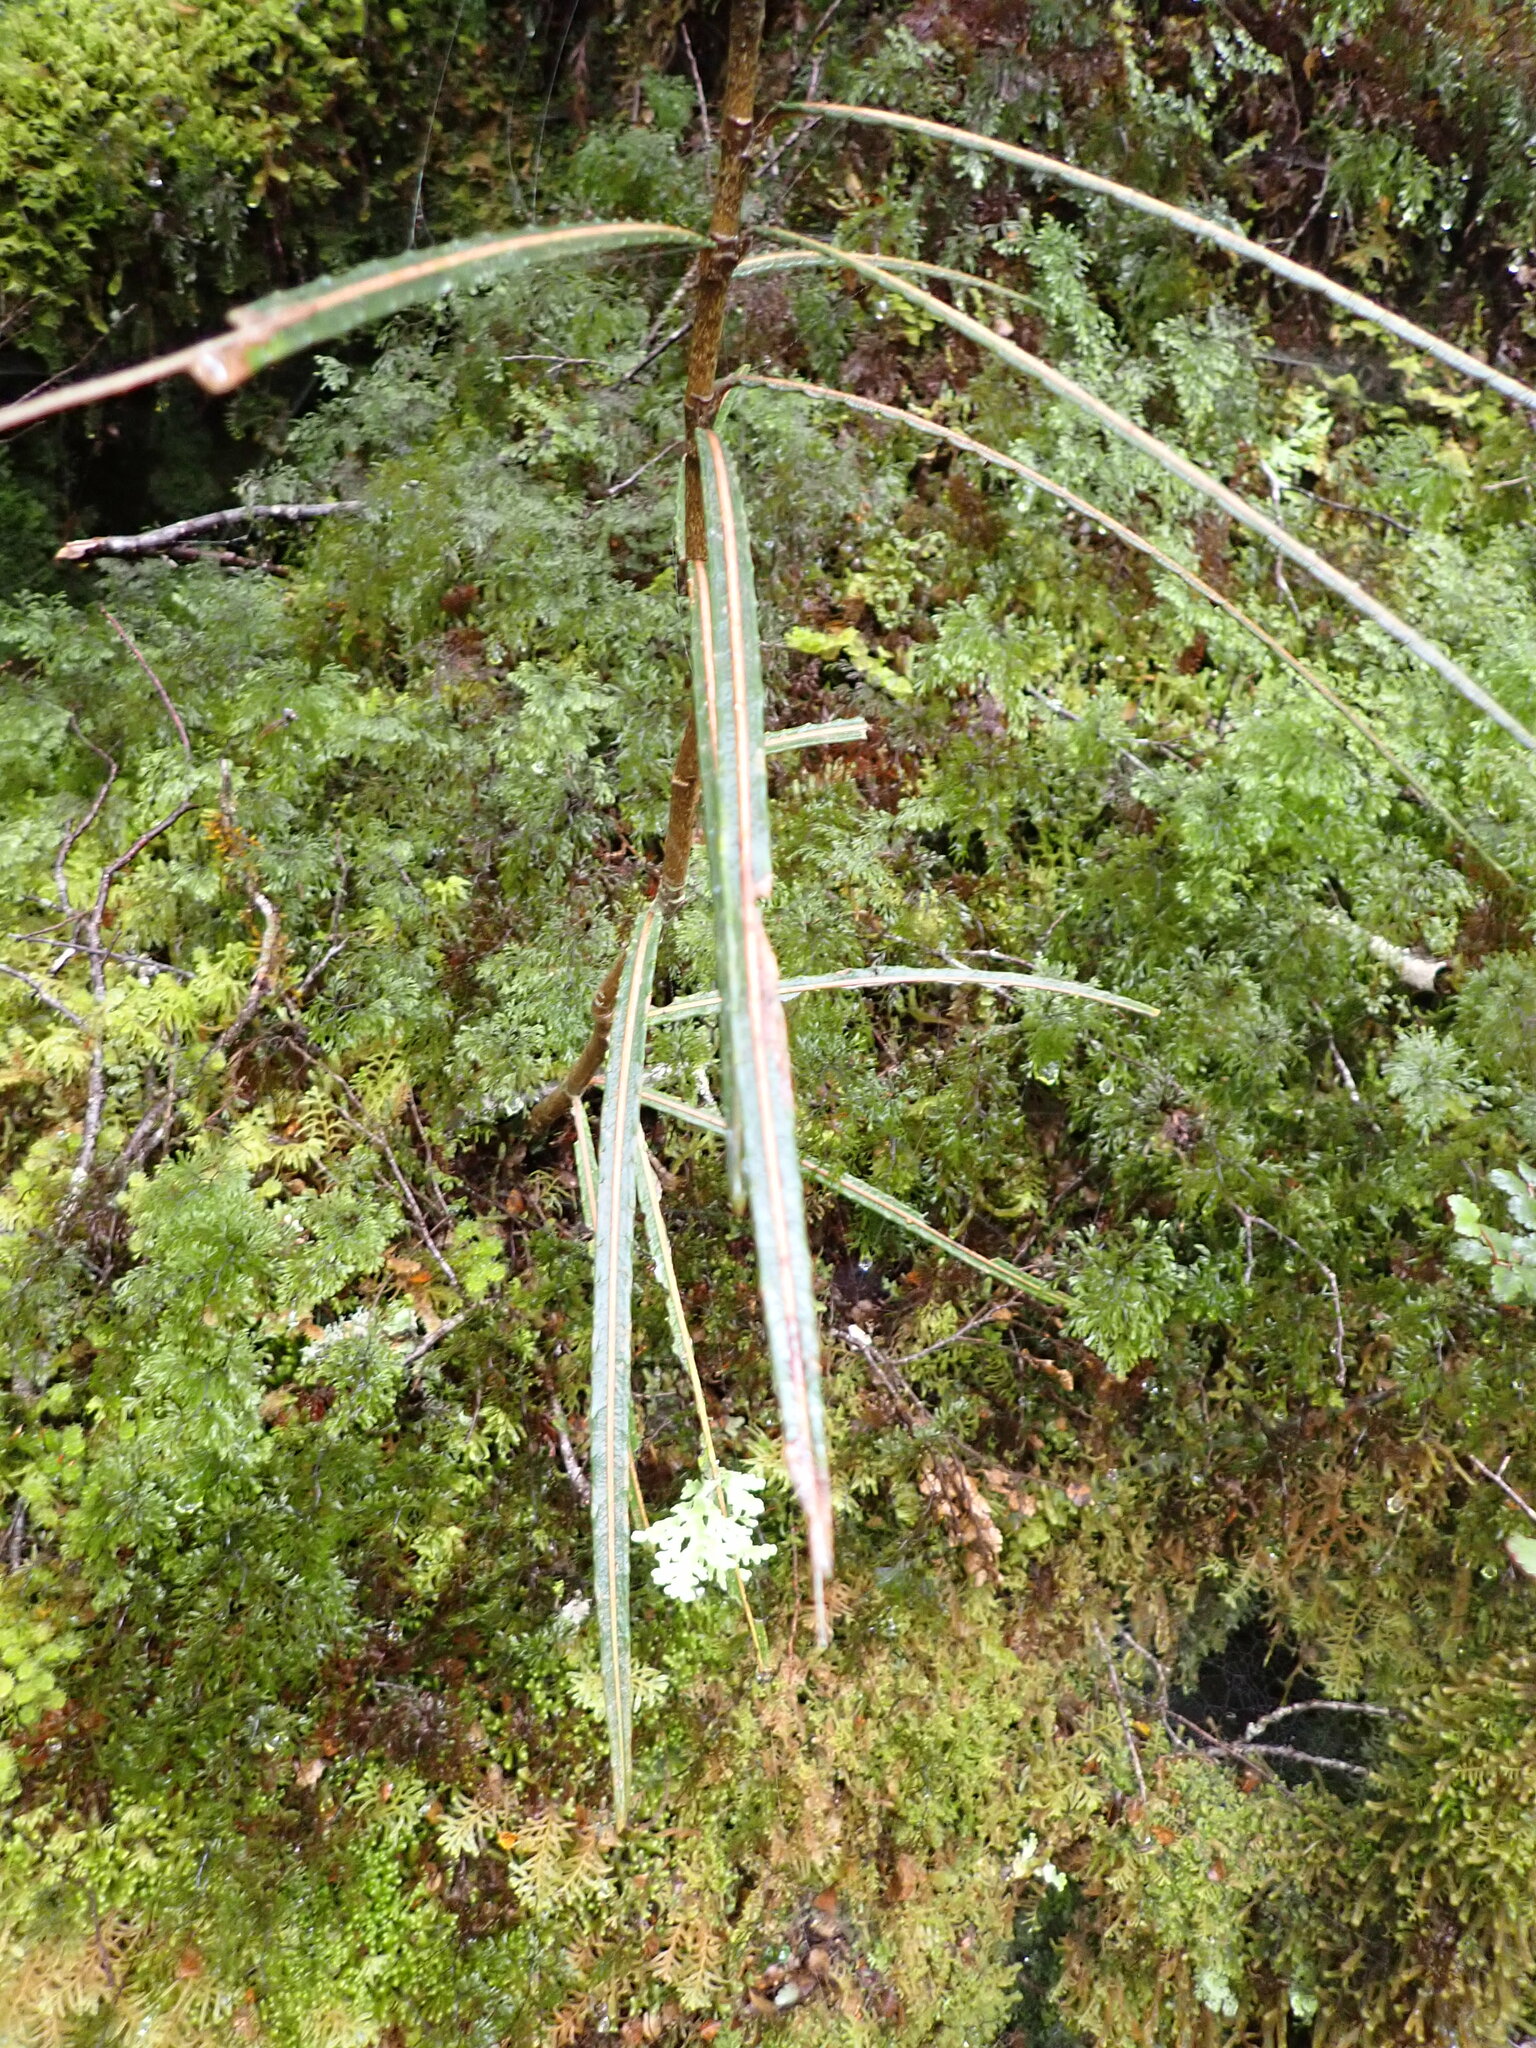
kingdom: Plantae
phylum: Tracheophyta
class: Magnoliopsida
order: Apiales
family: Araliaceae
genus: Pseudopanax
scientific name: Pseudopanax linearis
